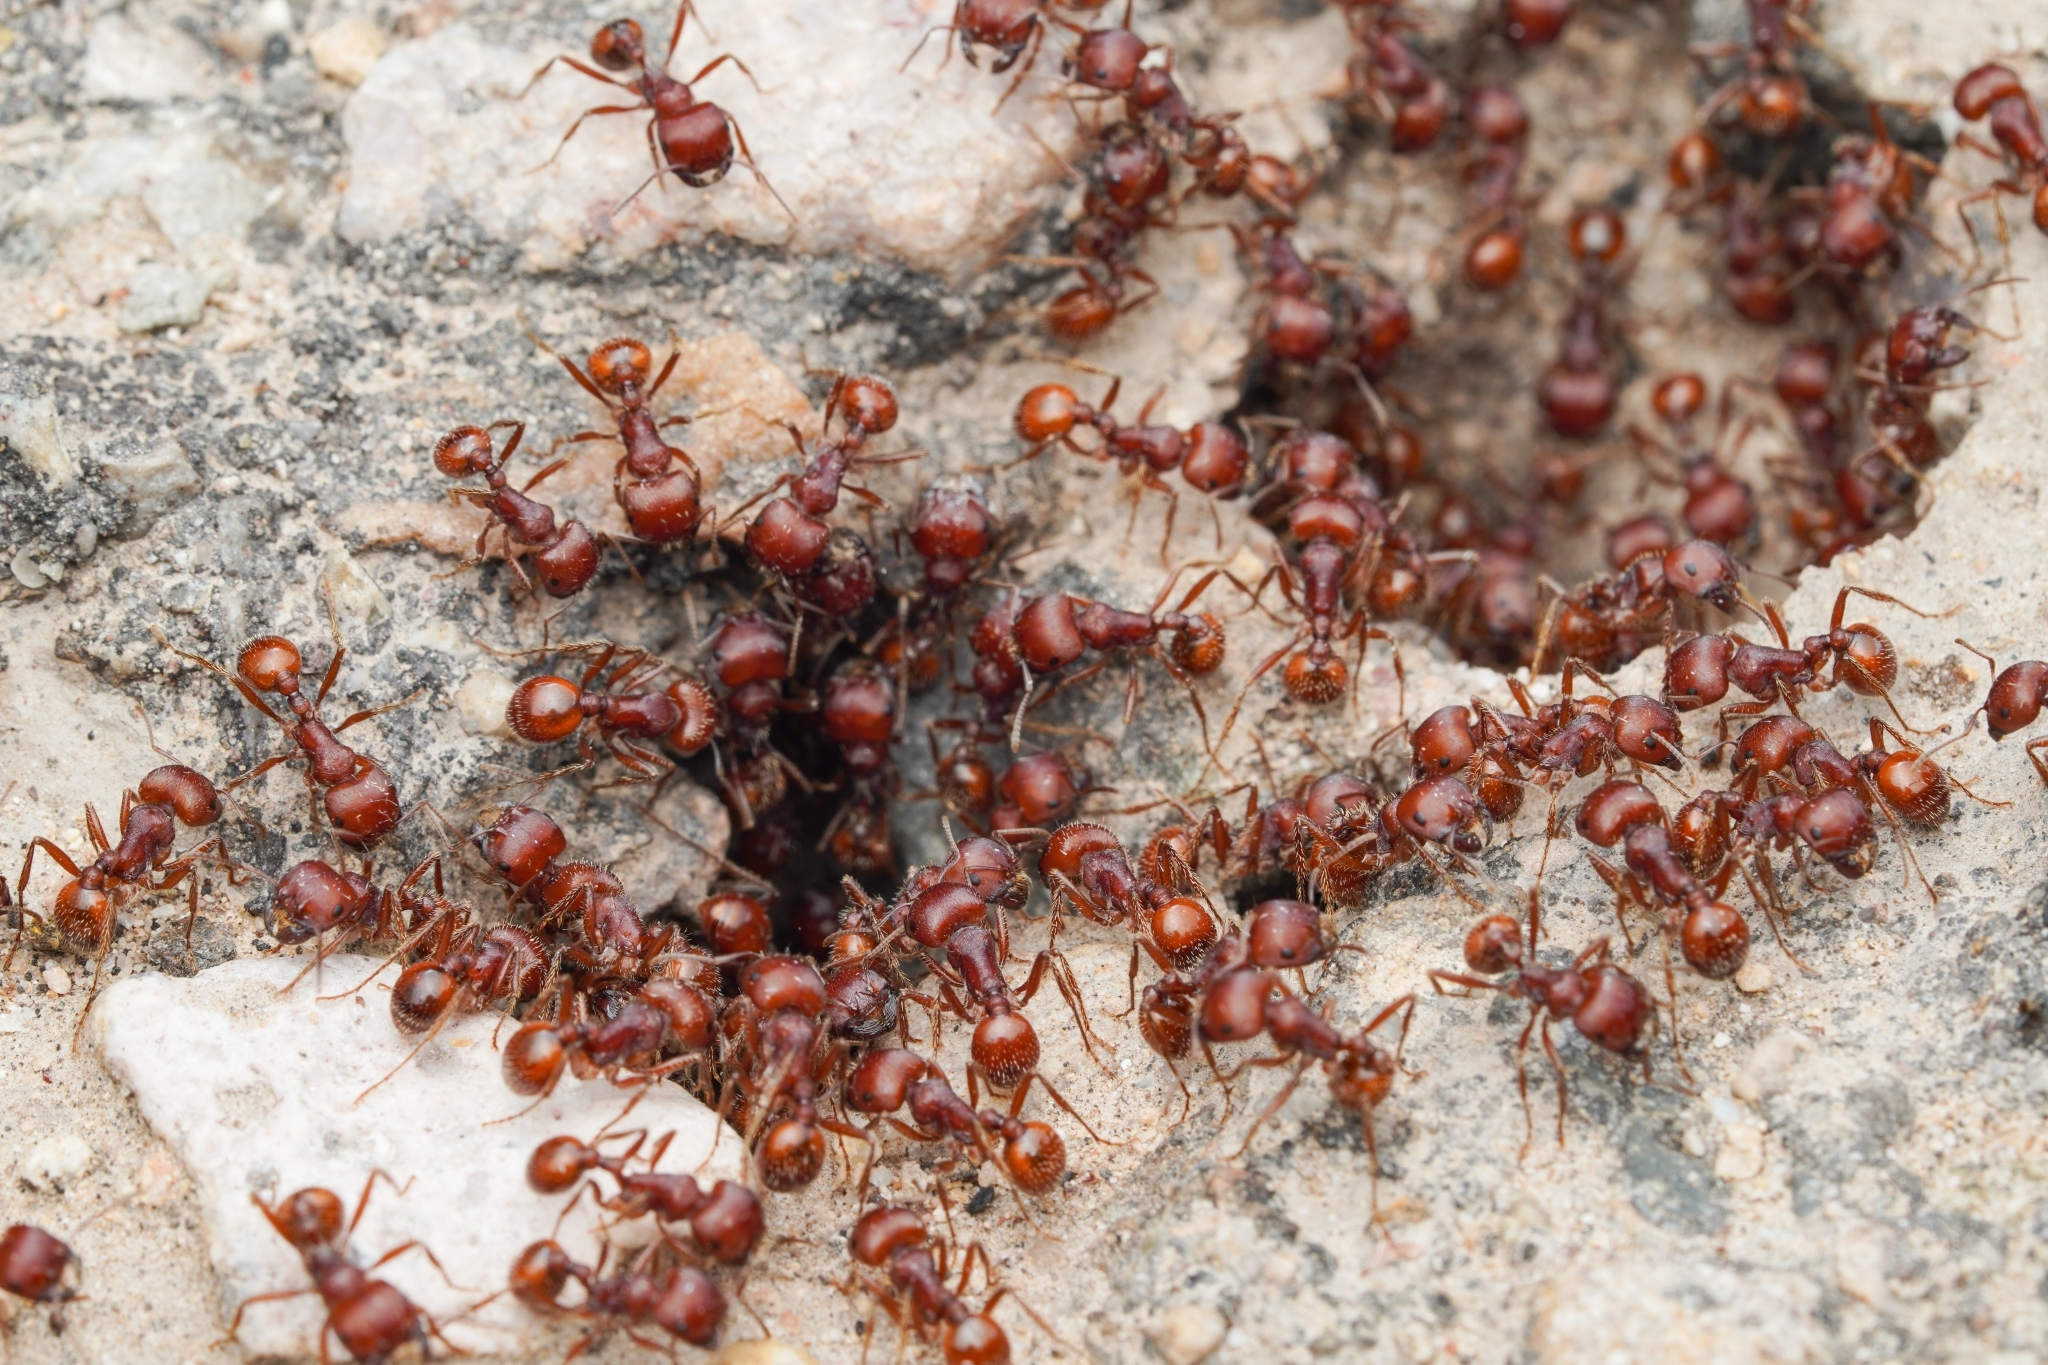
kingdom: Animalia
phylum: Arthropoda
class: Insecta
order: Hymenoptera
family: Formicidae
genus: Pogonomyrmex
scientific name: Pogonomyrmex barbatus
